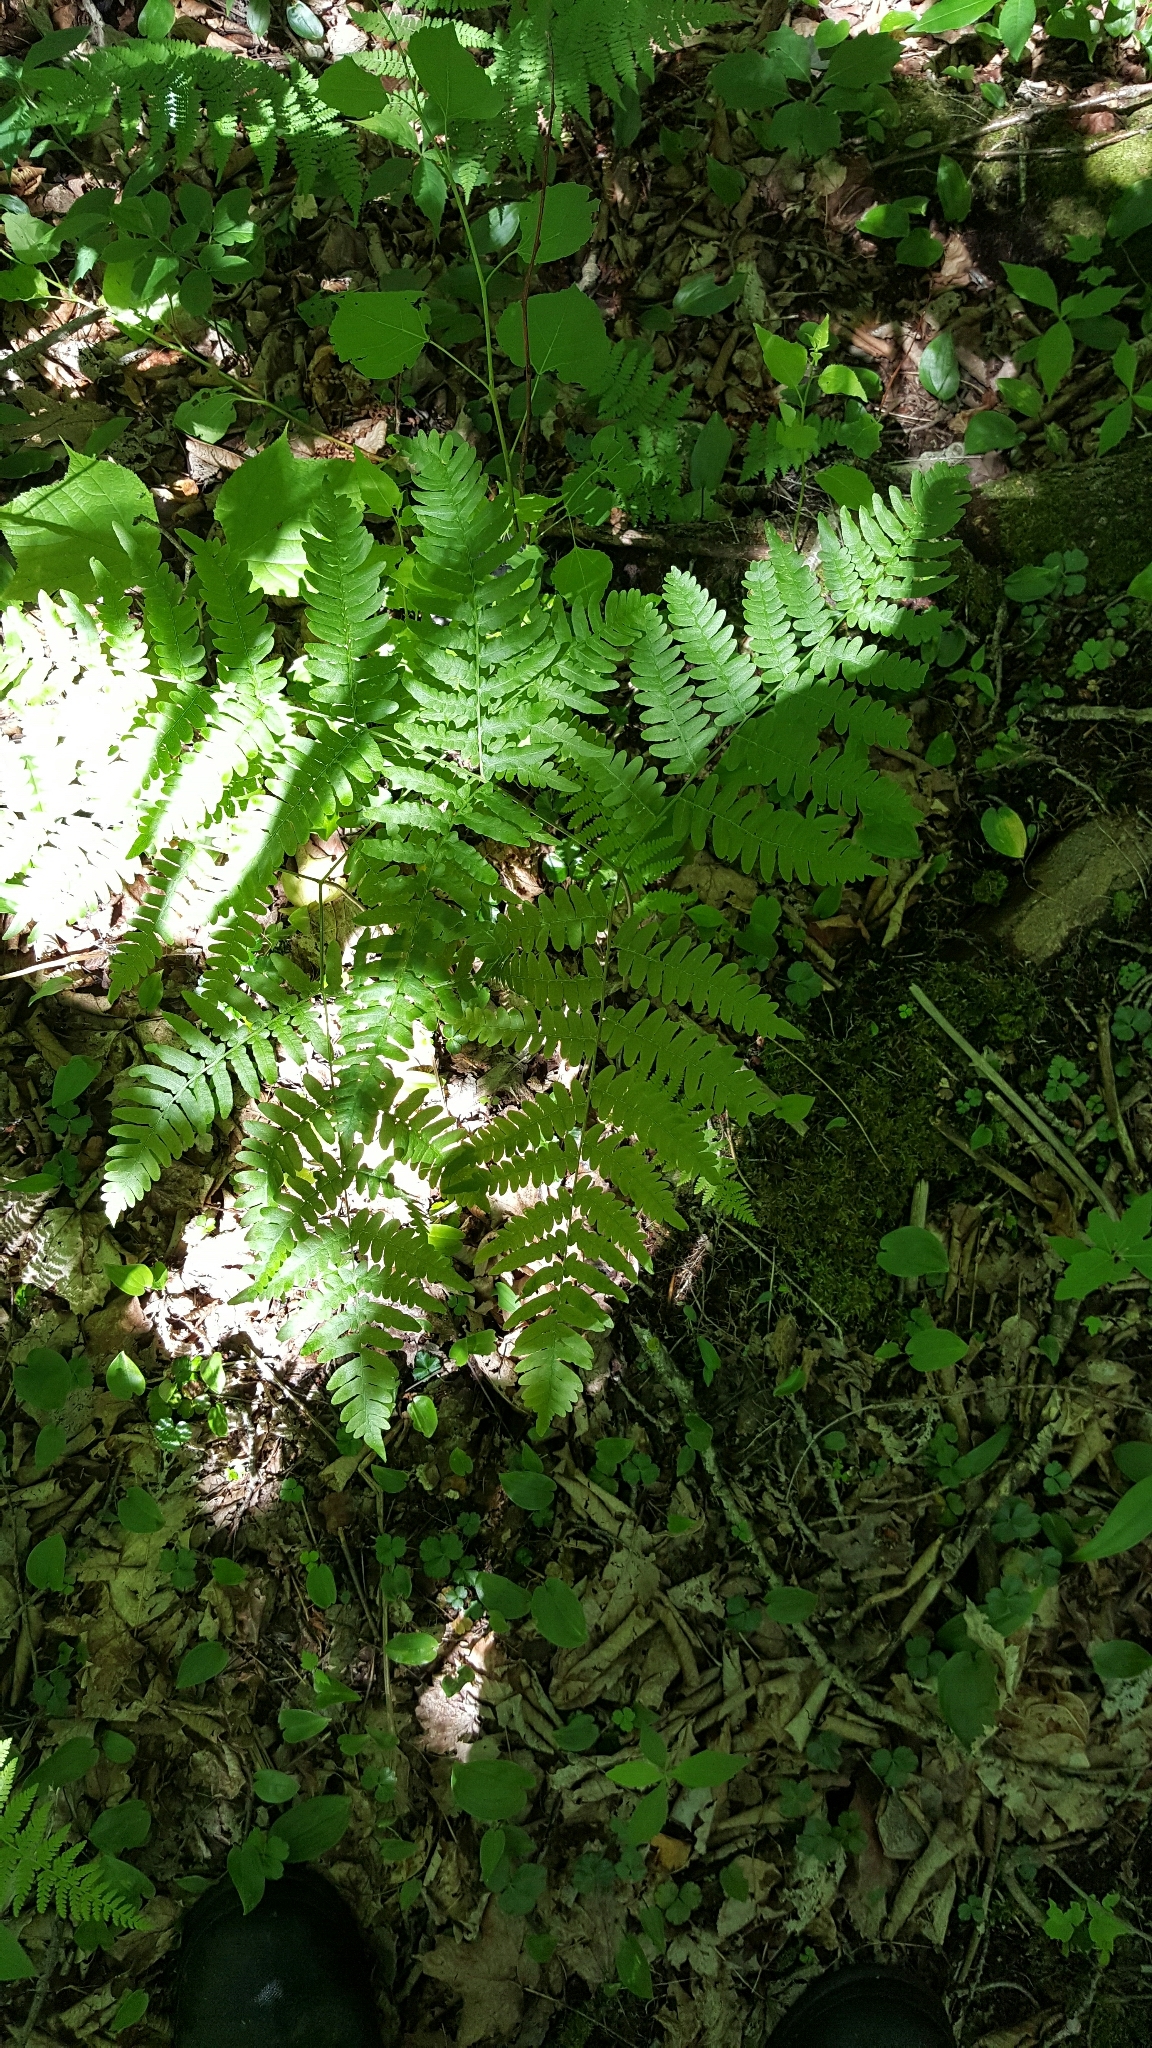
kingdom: Plantae
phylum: Tracheophyta
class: Polypodiopsida
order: Polypodiales
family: Dennstaedtiaceae
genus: Pteridium
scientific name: Pteridium aquilinum
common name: Bracken
